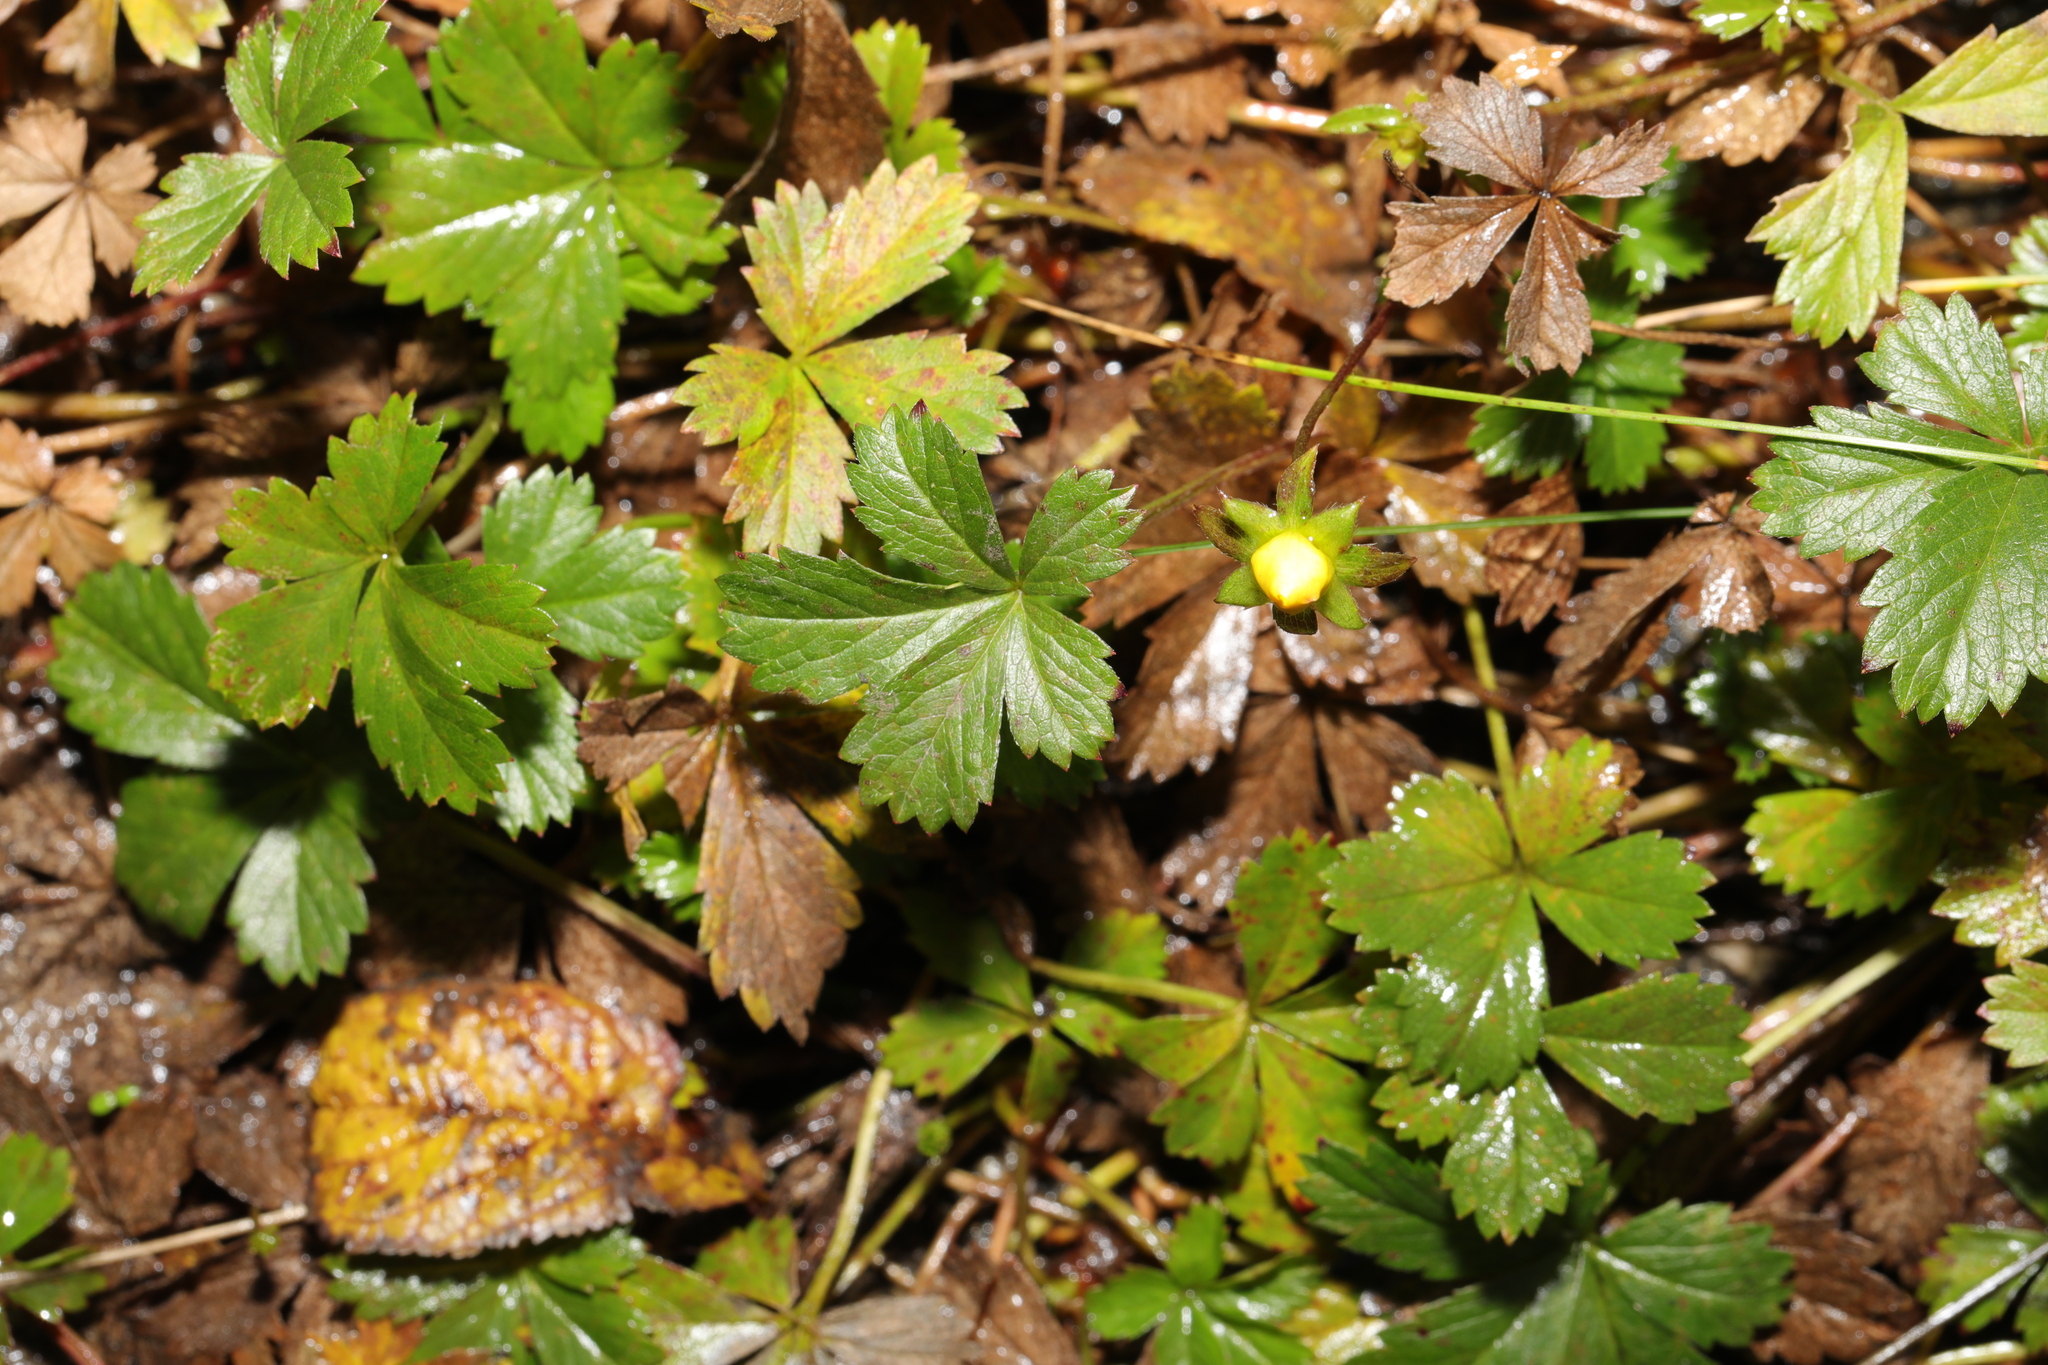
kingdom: Plantae
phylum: Tracheophyta
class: Magnoliopsida
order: Rosales
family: Rosaceae
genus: Potentilla
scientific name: Potentilla reptans
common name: Creeping cinquefoil
